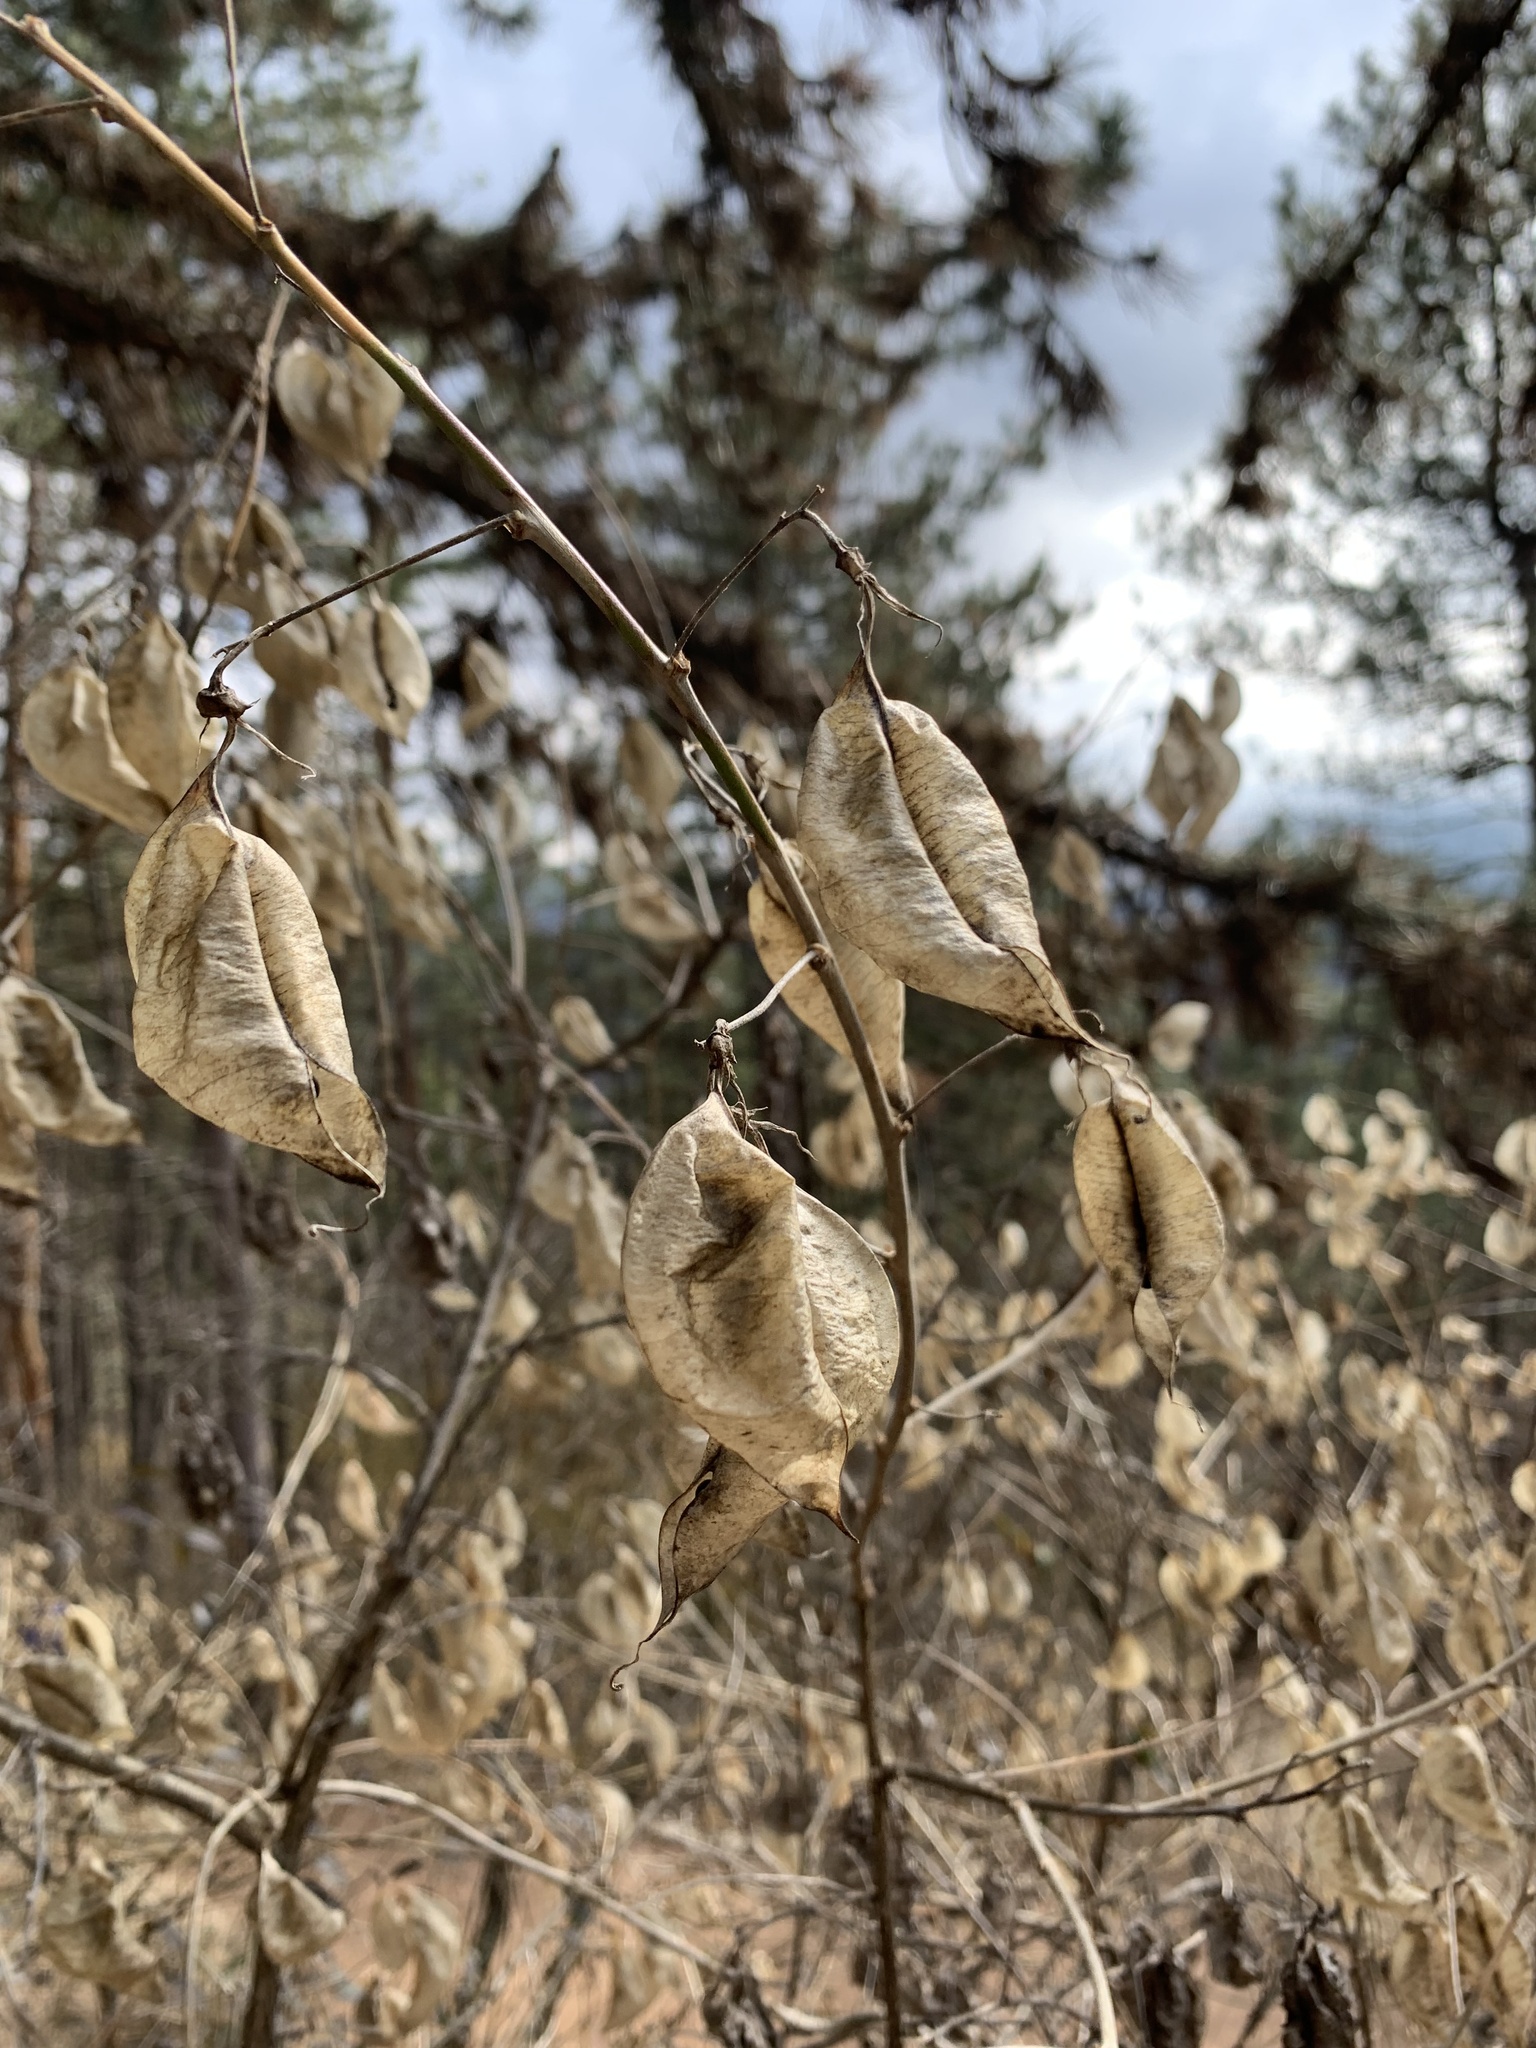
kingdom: Plantae
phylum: Tracheophyta
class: Magnoliopsida
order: Fabales
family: Fabaceae
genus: Colutea
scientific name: Colutea cilicica
